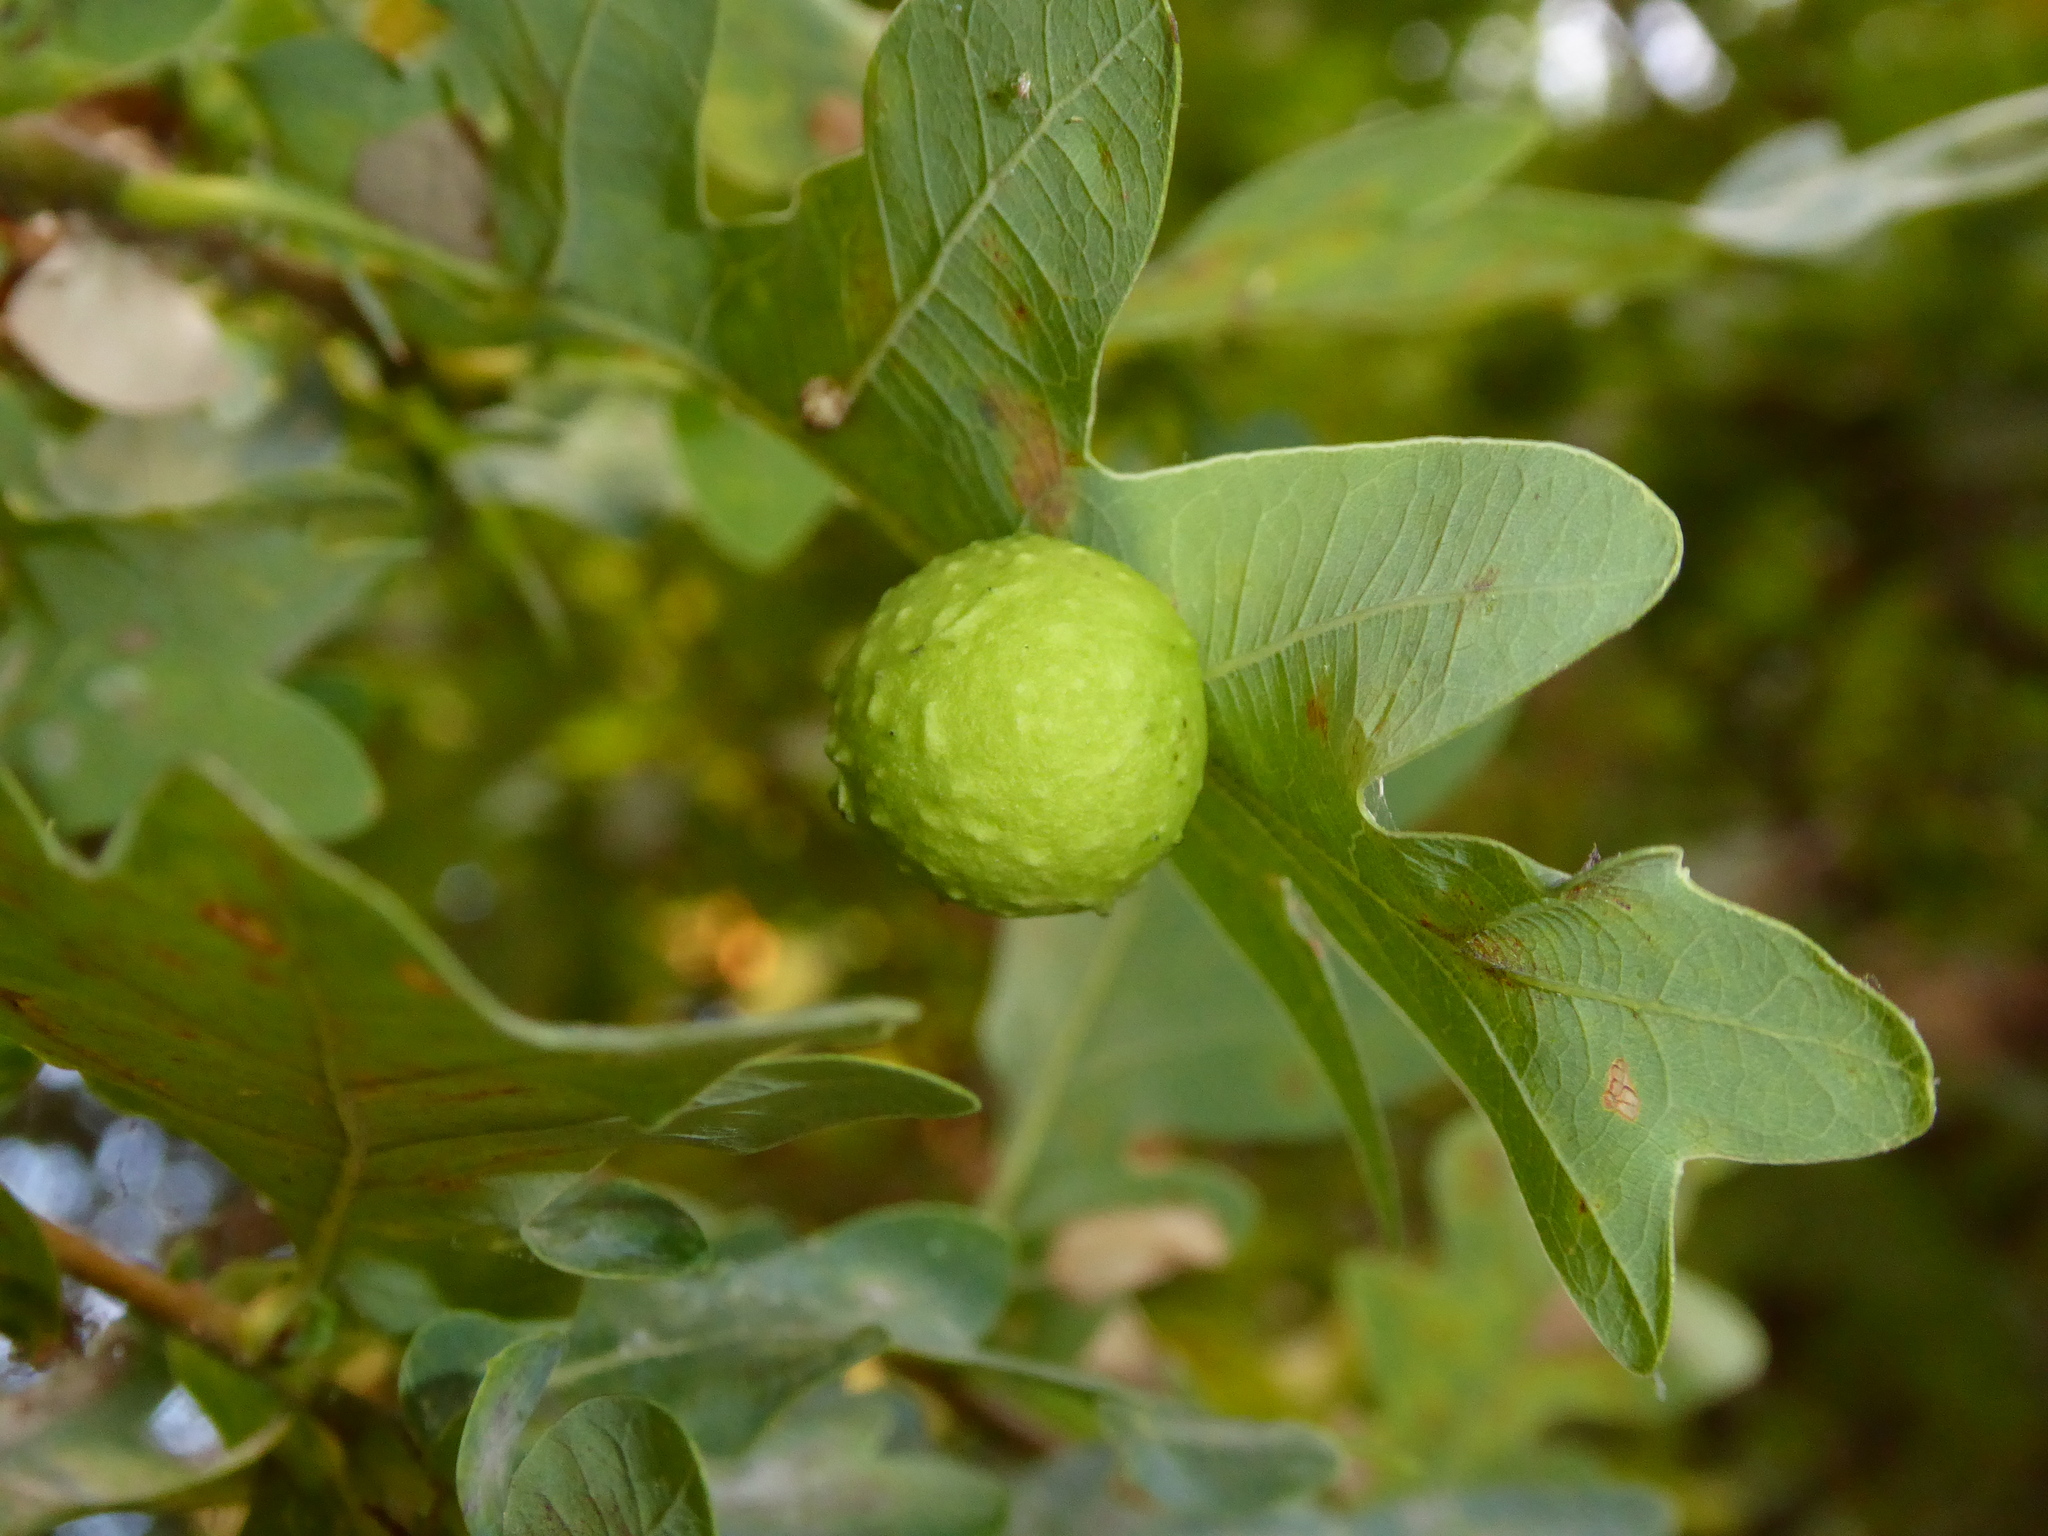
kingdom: Animalia
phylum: Arthropoda
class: Insecta
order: Hymenoptera
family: Cynipidae
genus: Cynips
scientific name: Cynips quercusfolii
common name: Cherry gall
